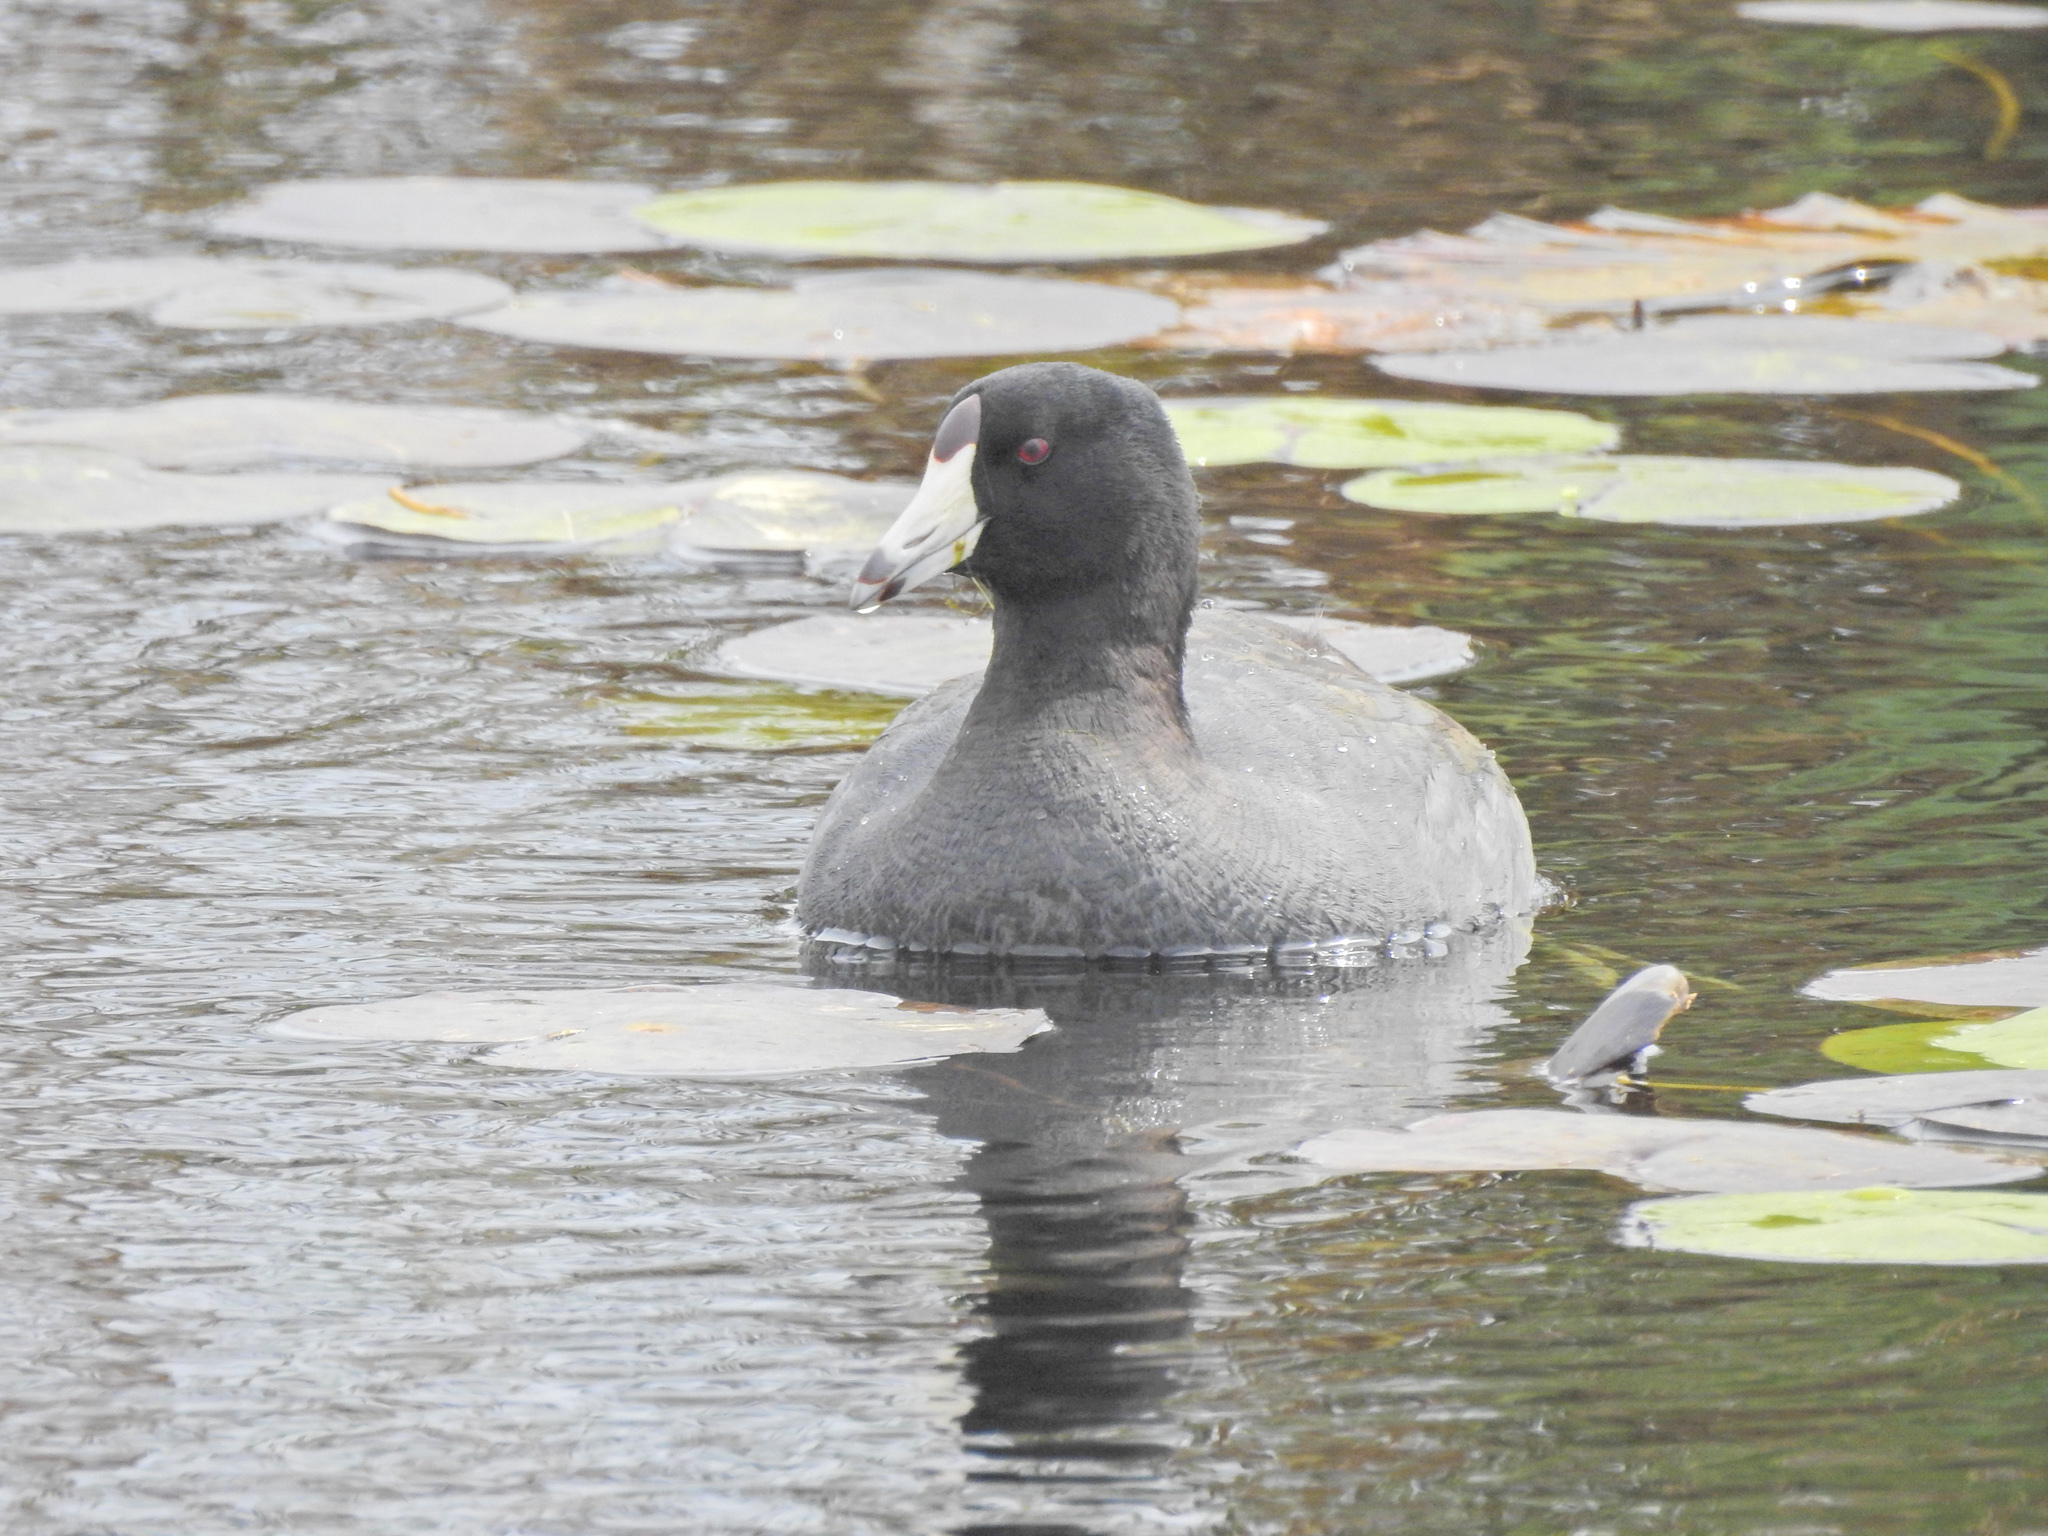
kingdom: Animalia
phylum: Chordata
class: Aves
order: Gruiformes
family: Rallidae
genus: Fulica
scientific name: Fulica americana
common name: American coot
